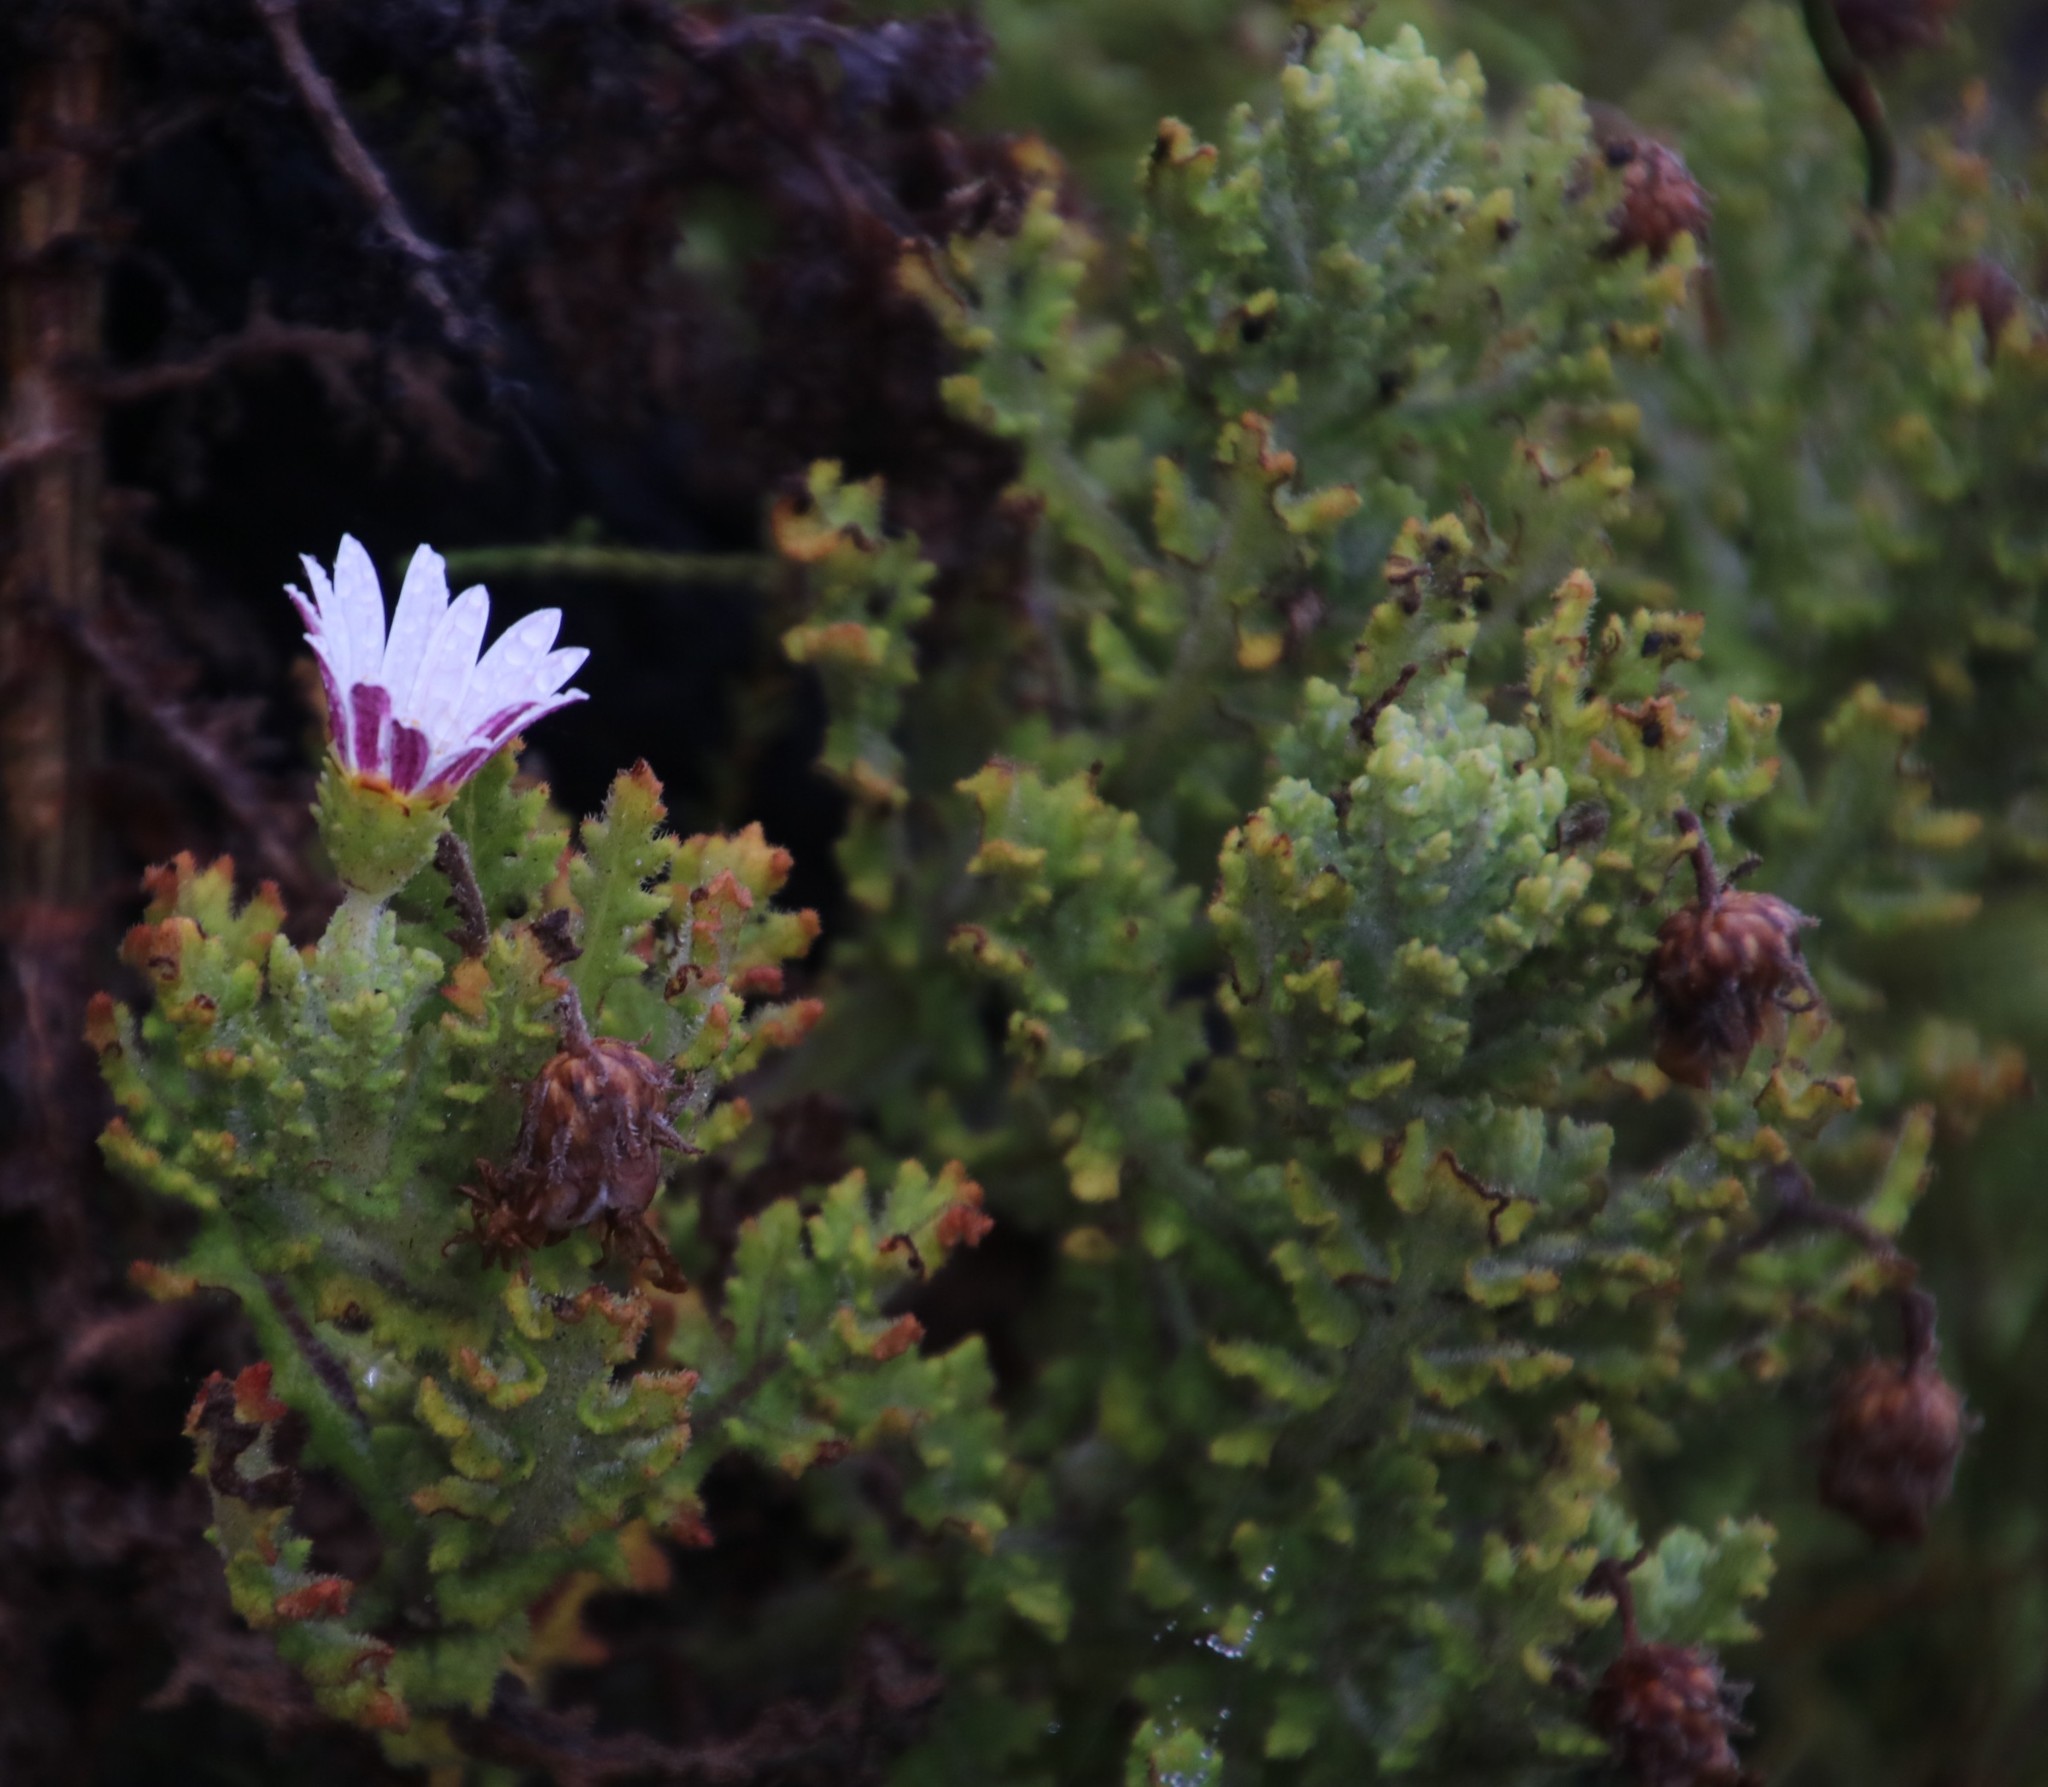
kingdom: Plantae
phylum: Tracheophyta
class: Magnoliopsida
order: Asterales
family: Asteraceae
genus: Arctotis
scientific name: Arctotis aspera
